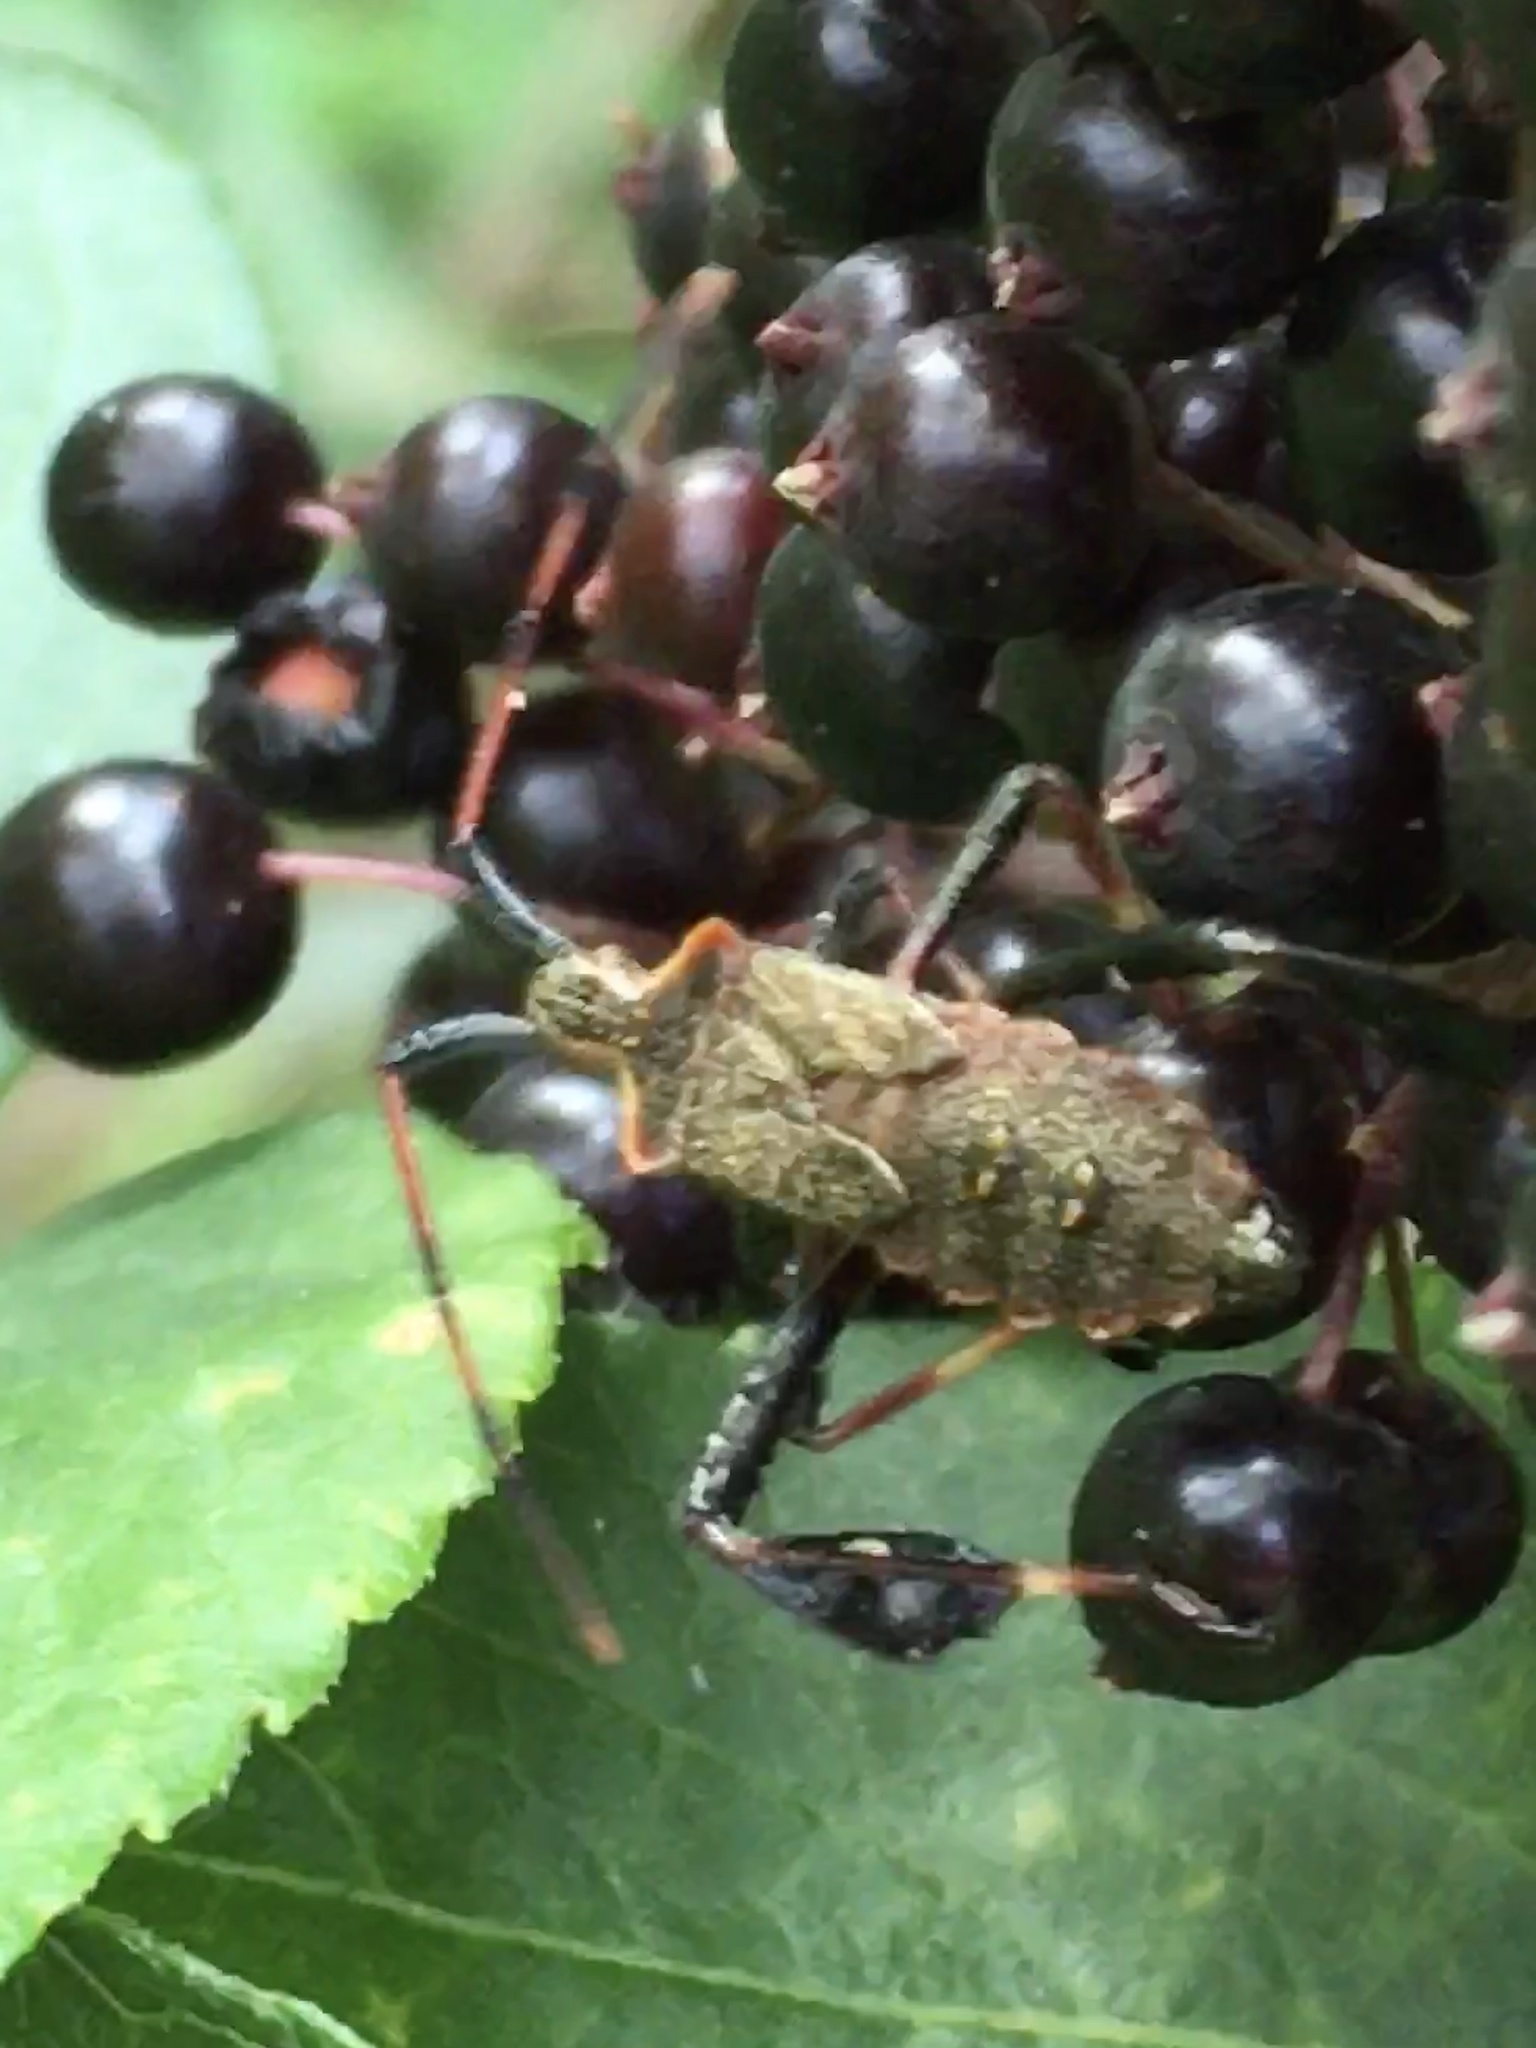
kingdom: Plantae
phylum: Tracheophyta
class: Magnoliopsida
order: Dipsacales
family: Viburnaceae
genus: Sambucus
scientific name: Sambucus canadensis
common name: American elder
